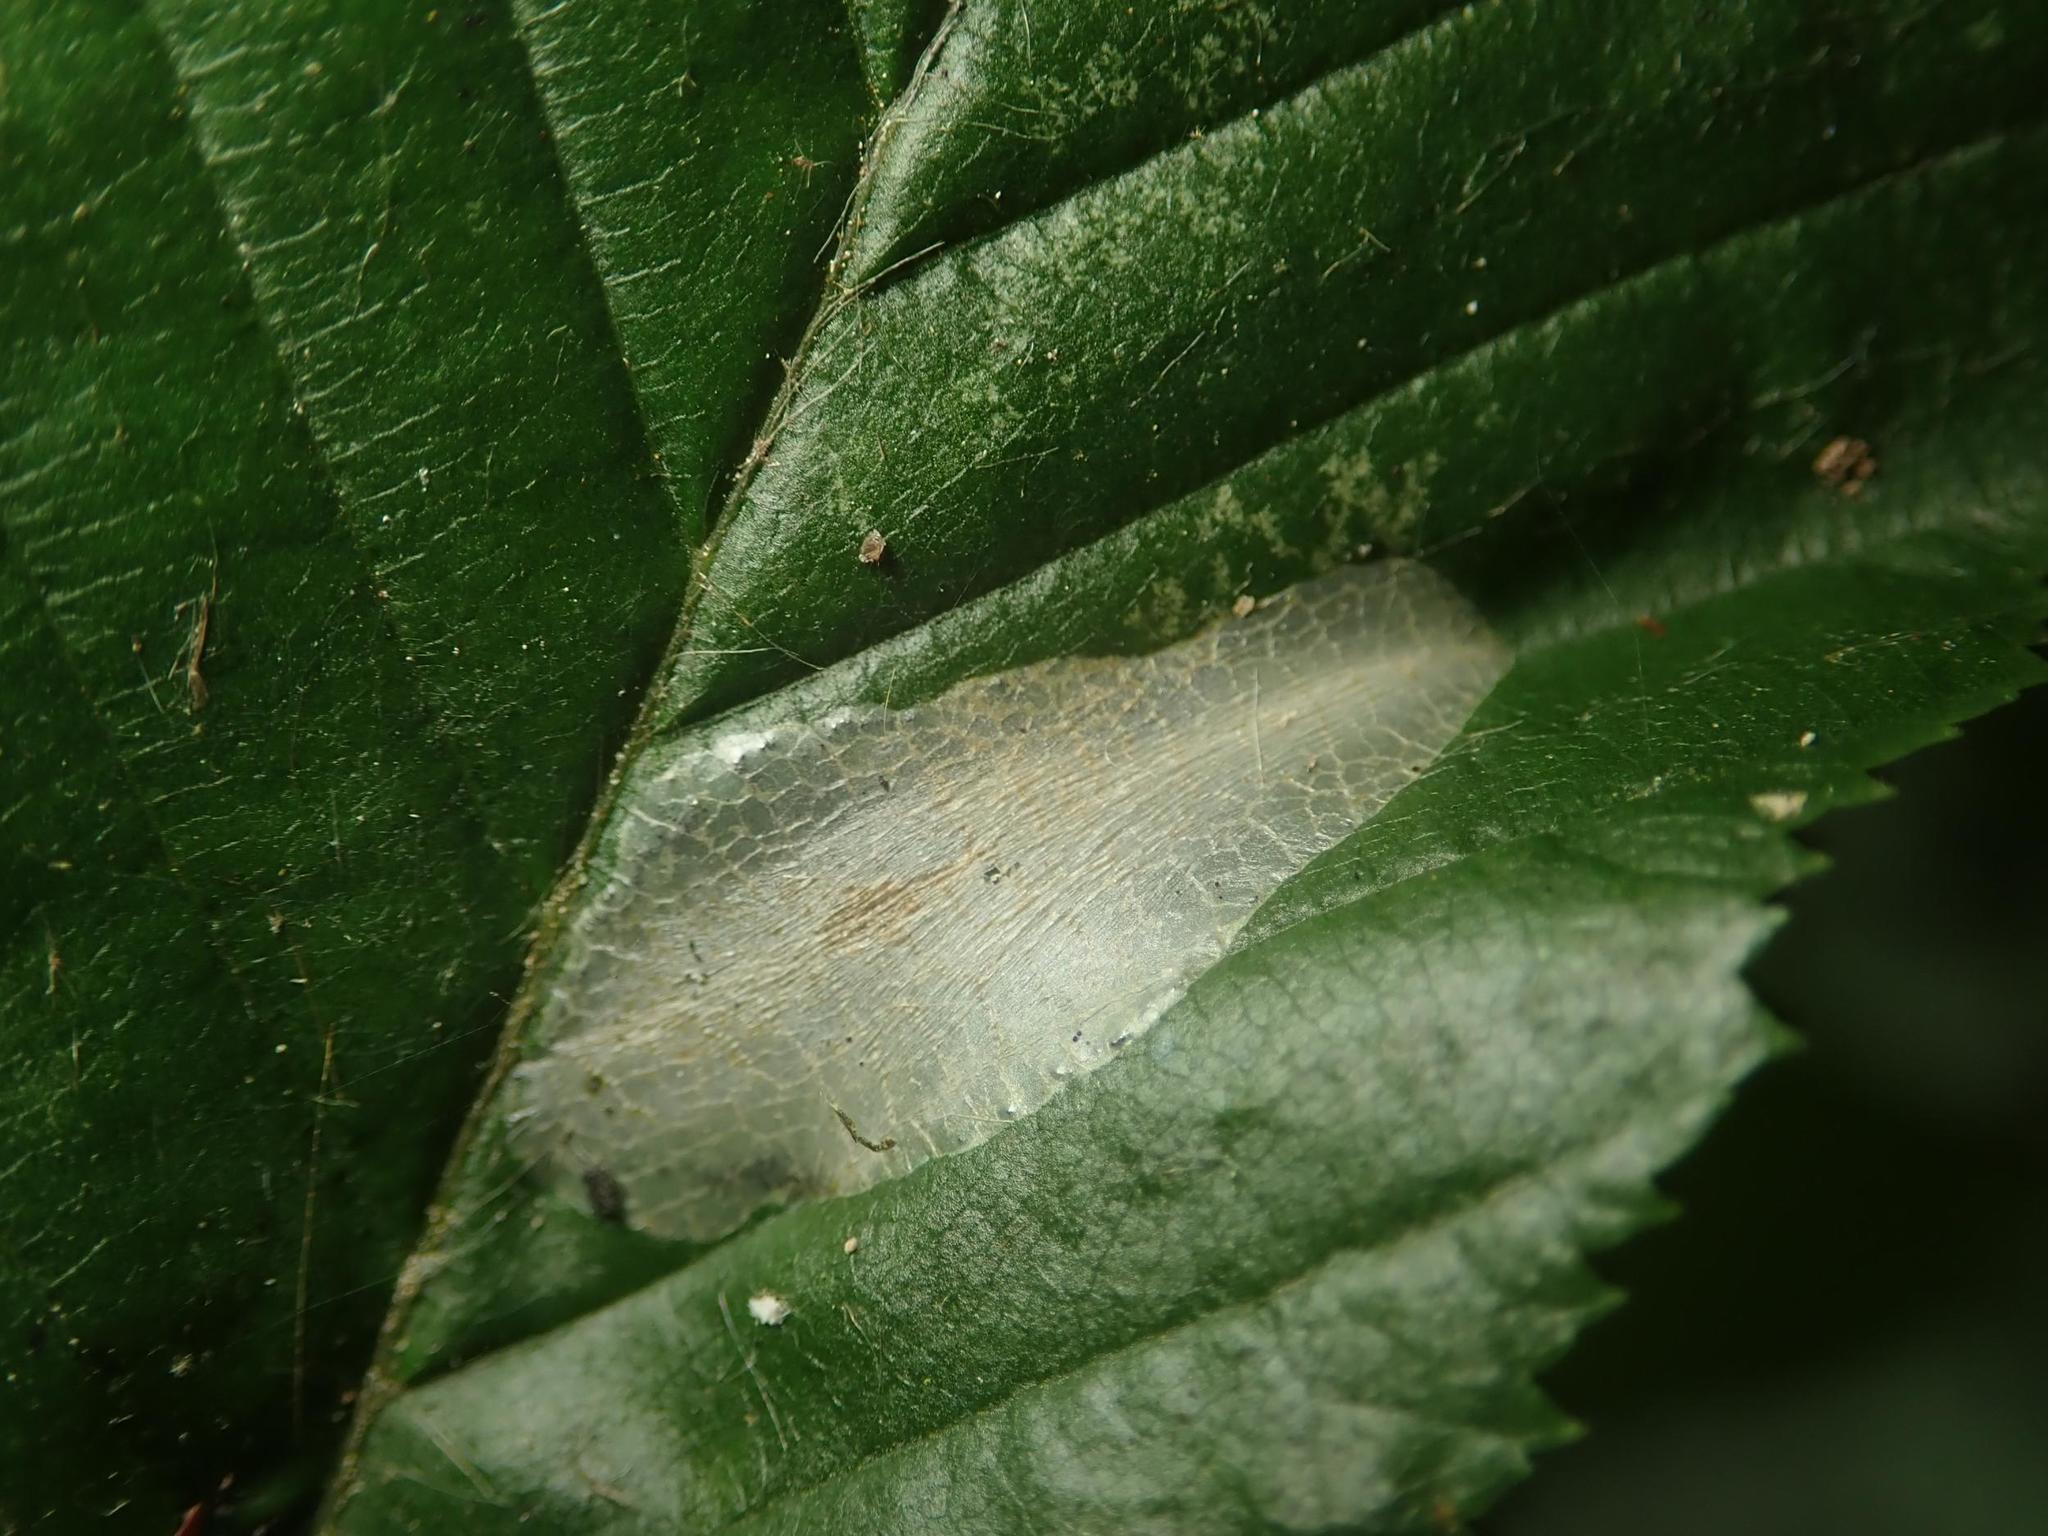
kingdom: Animalia
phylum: Arthropoda
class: Insecta
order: Lepidoptera
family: Gracillariidae
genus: Phyllonorycter
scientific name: Phyllonorycter esperella
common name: Dark hornbeam midget
